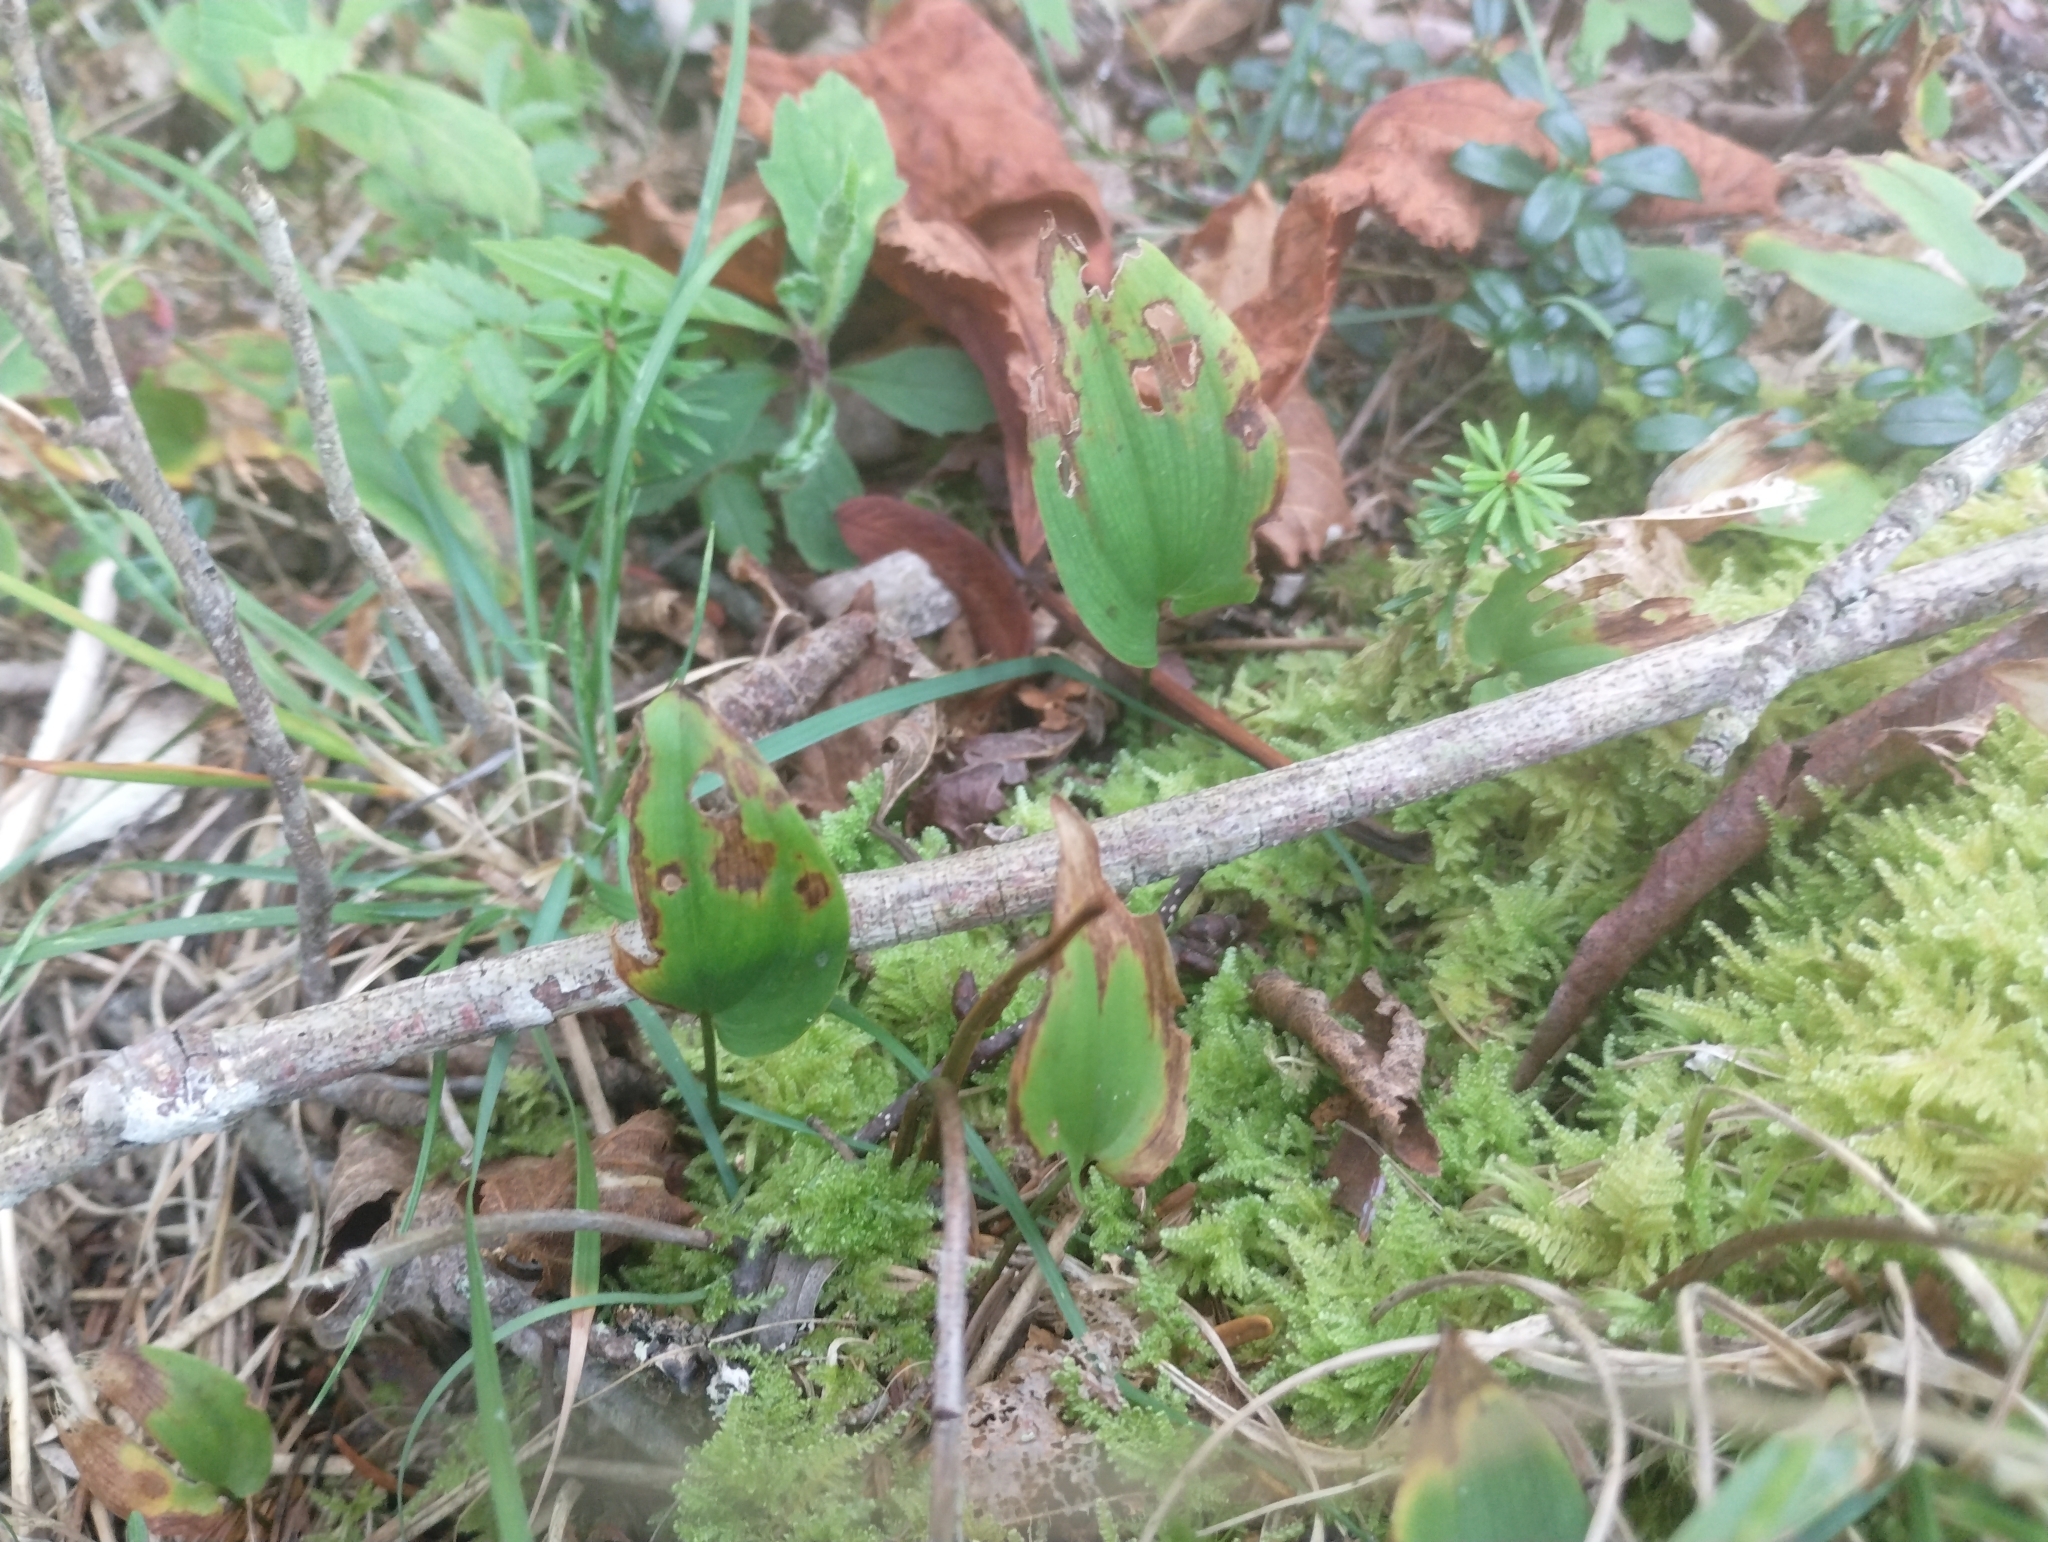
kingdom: Plantae
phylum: Tracheophyta
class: Liliopsida
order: Asparagales
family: Asparagaceae
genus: Maianthemum
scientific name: Maianthemum canadense
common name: False lily-of-the-valley
